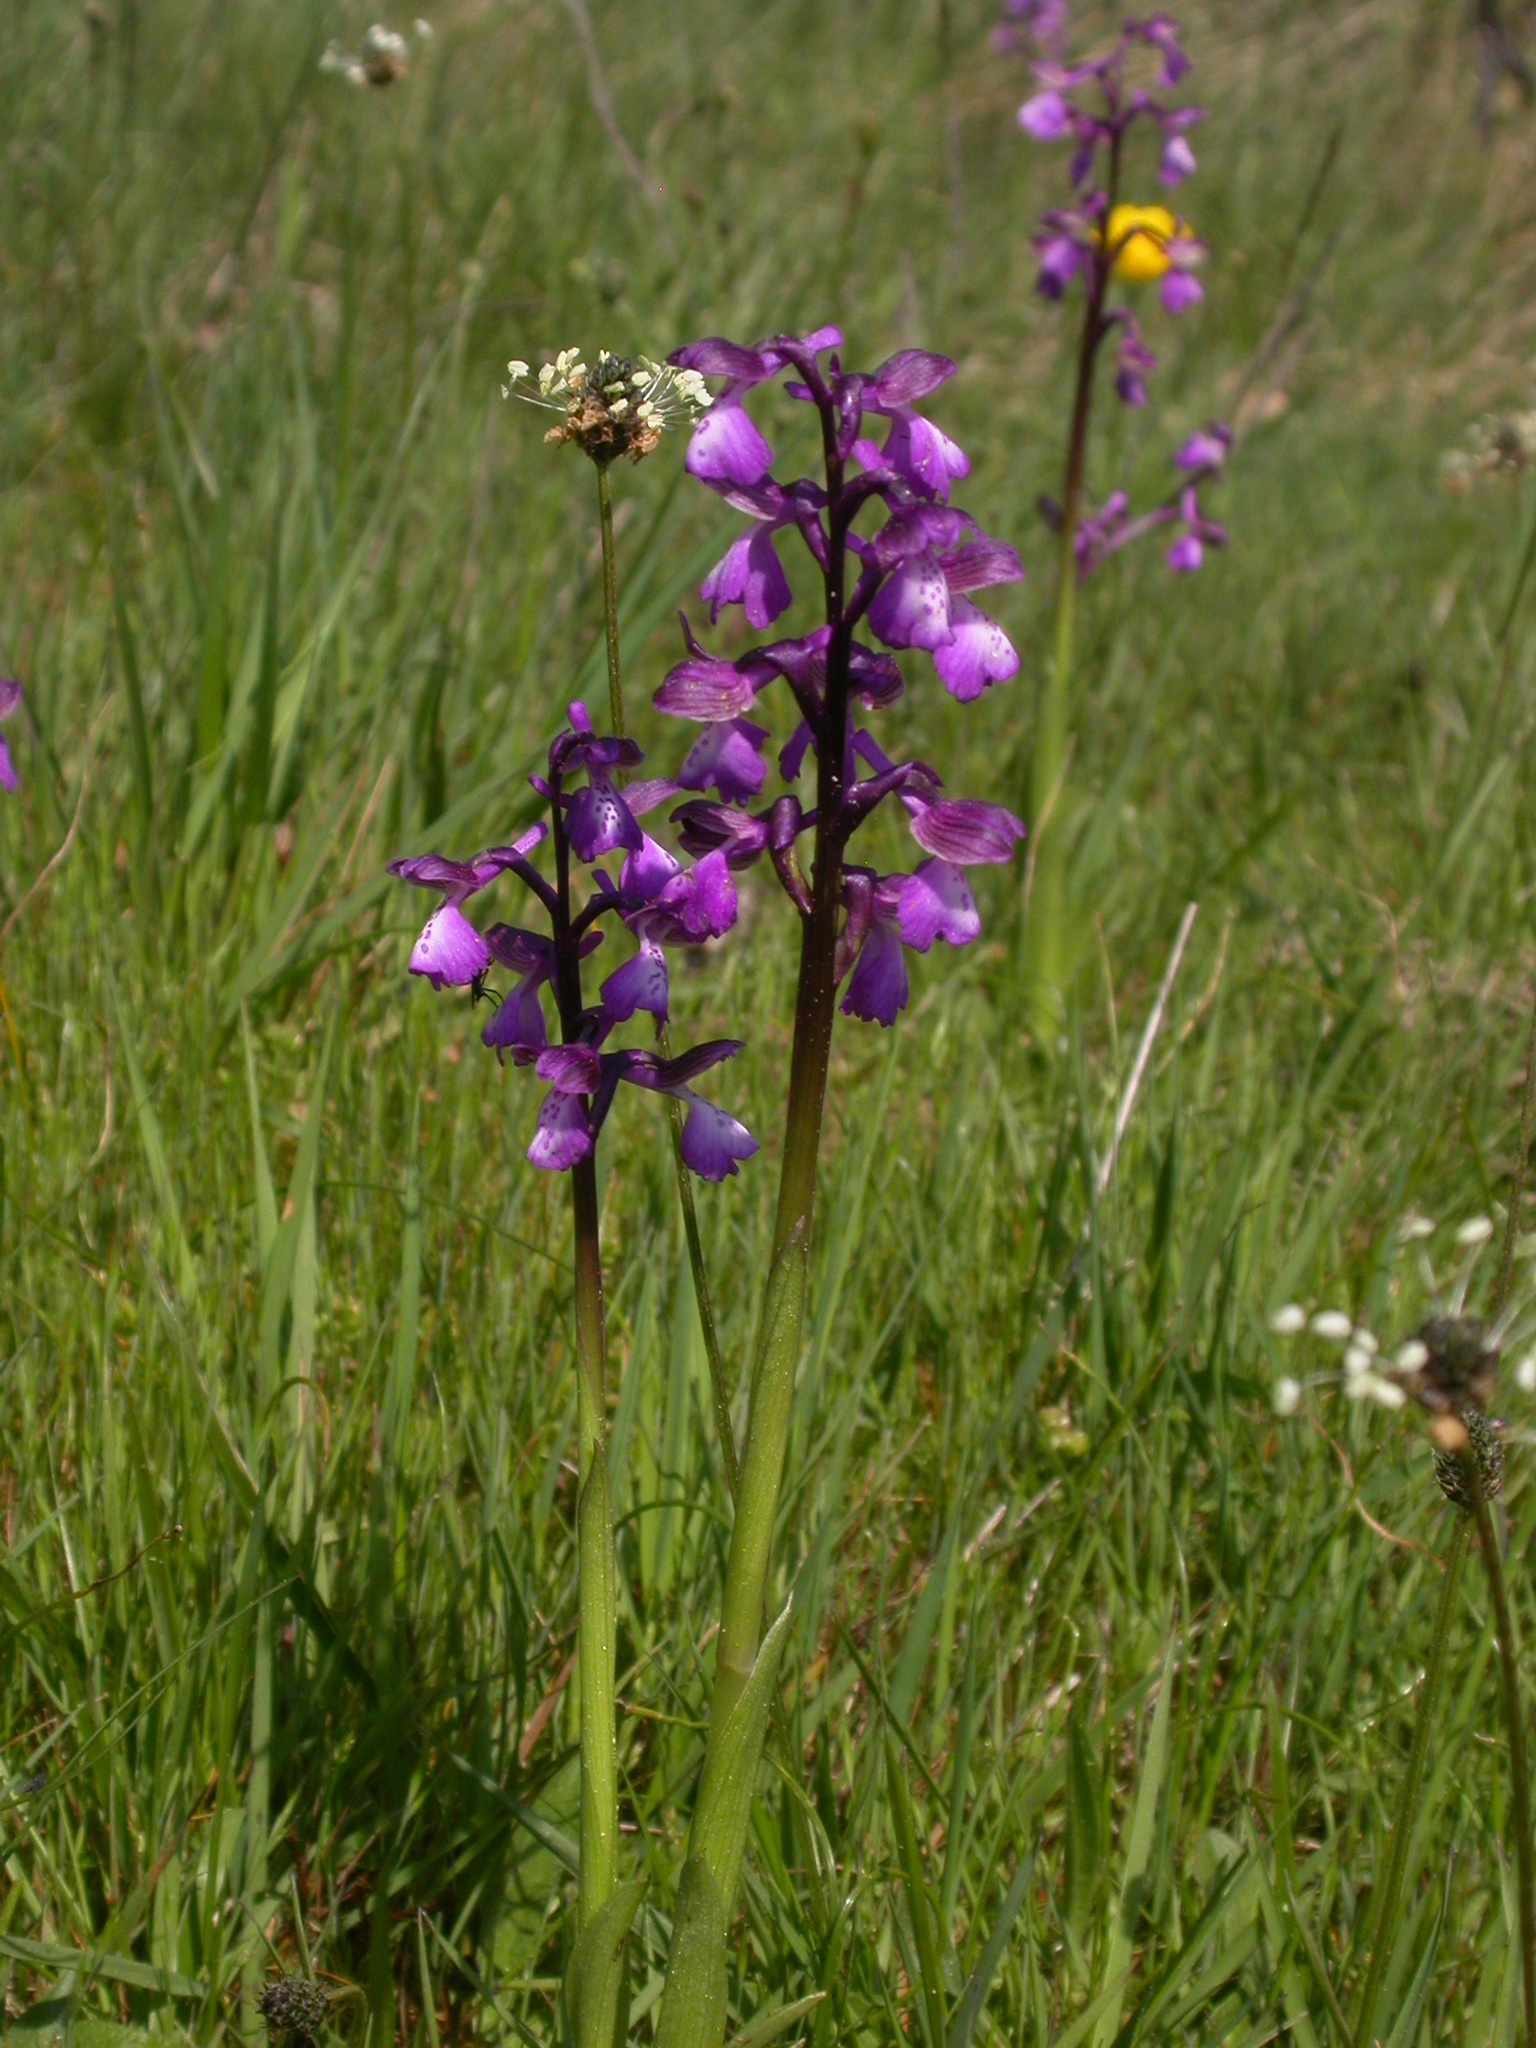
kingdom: Plantae
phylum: Tracheophyta
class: Liliopsida
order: Asparagales
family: Orchidaceae
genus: Anacamptis
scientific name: Anacamptis morio
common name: Green-winged orchid
